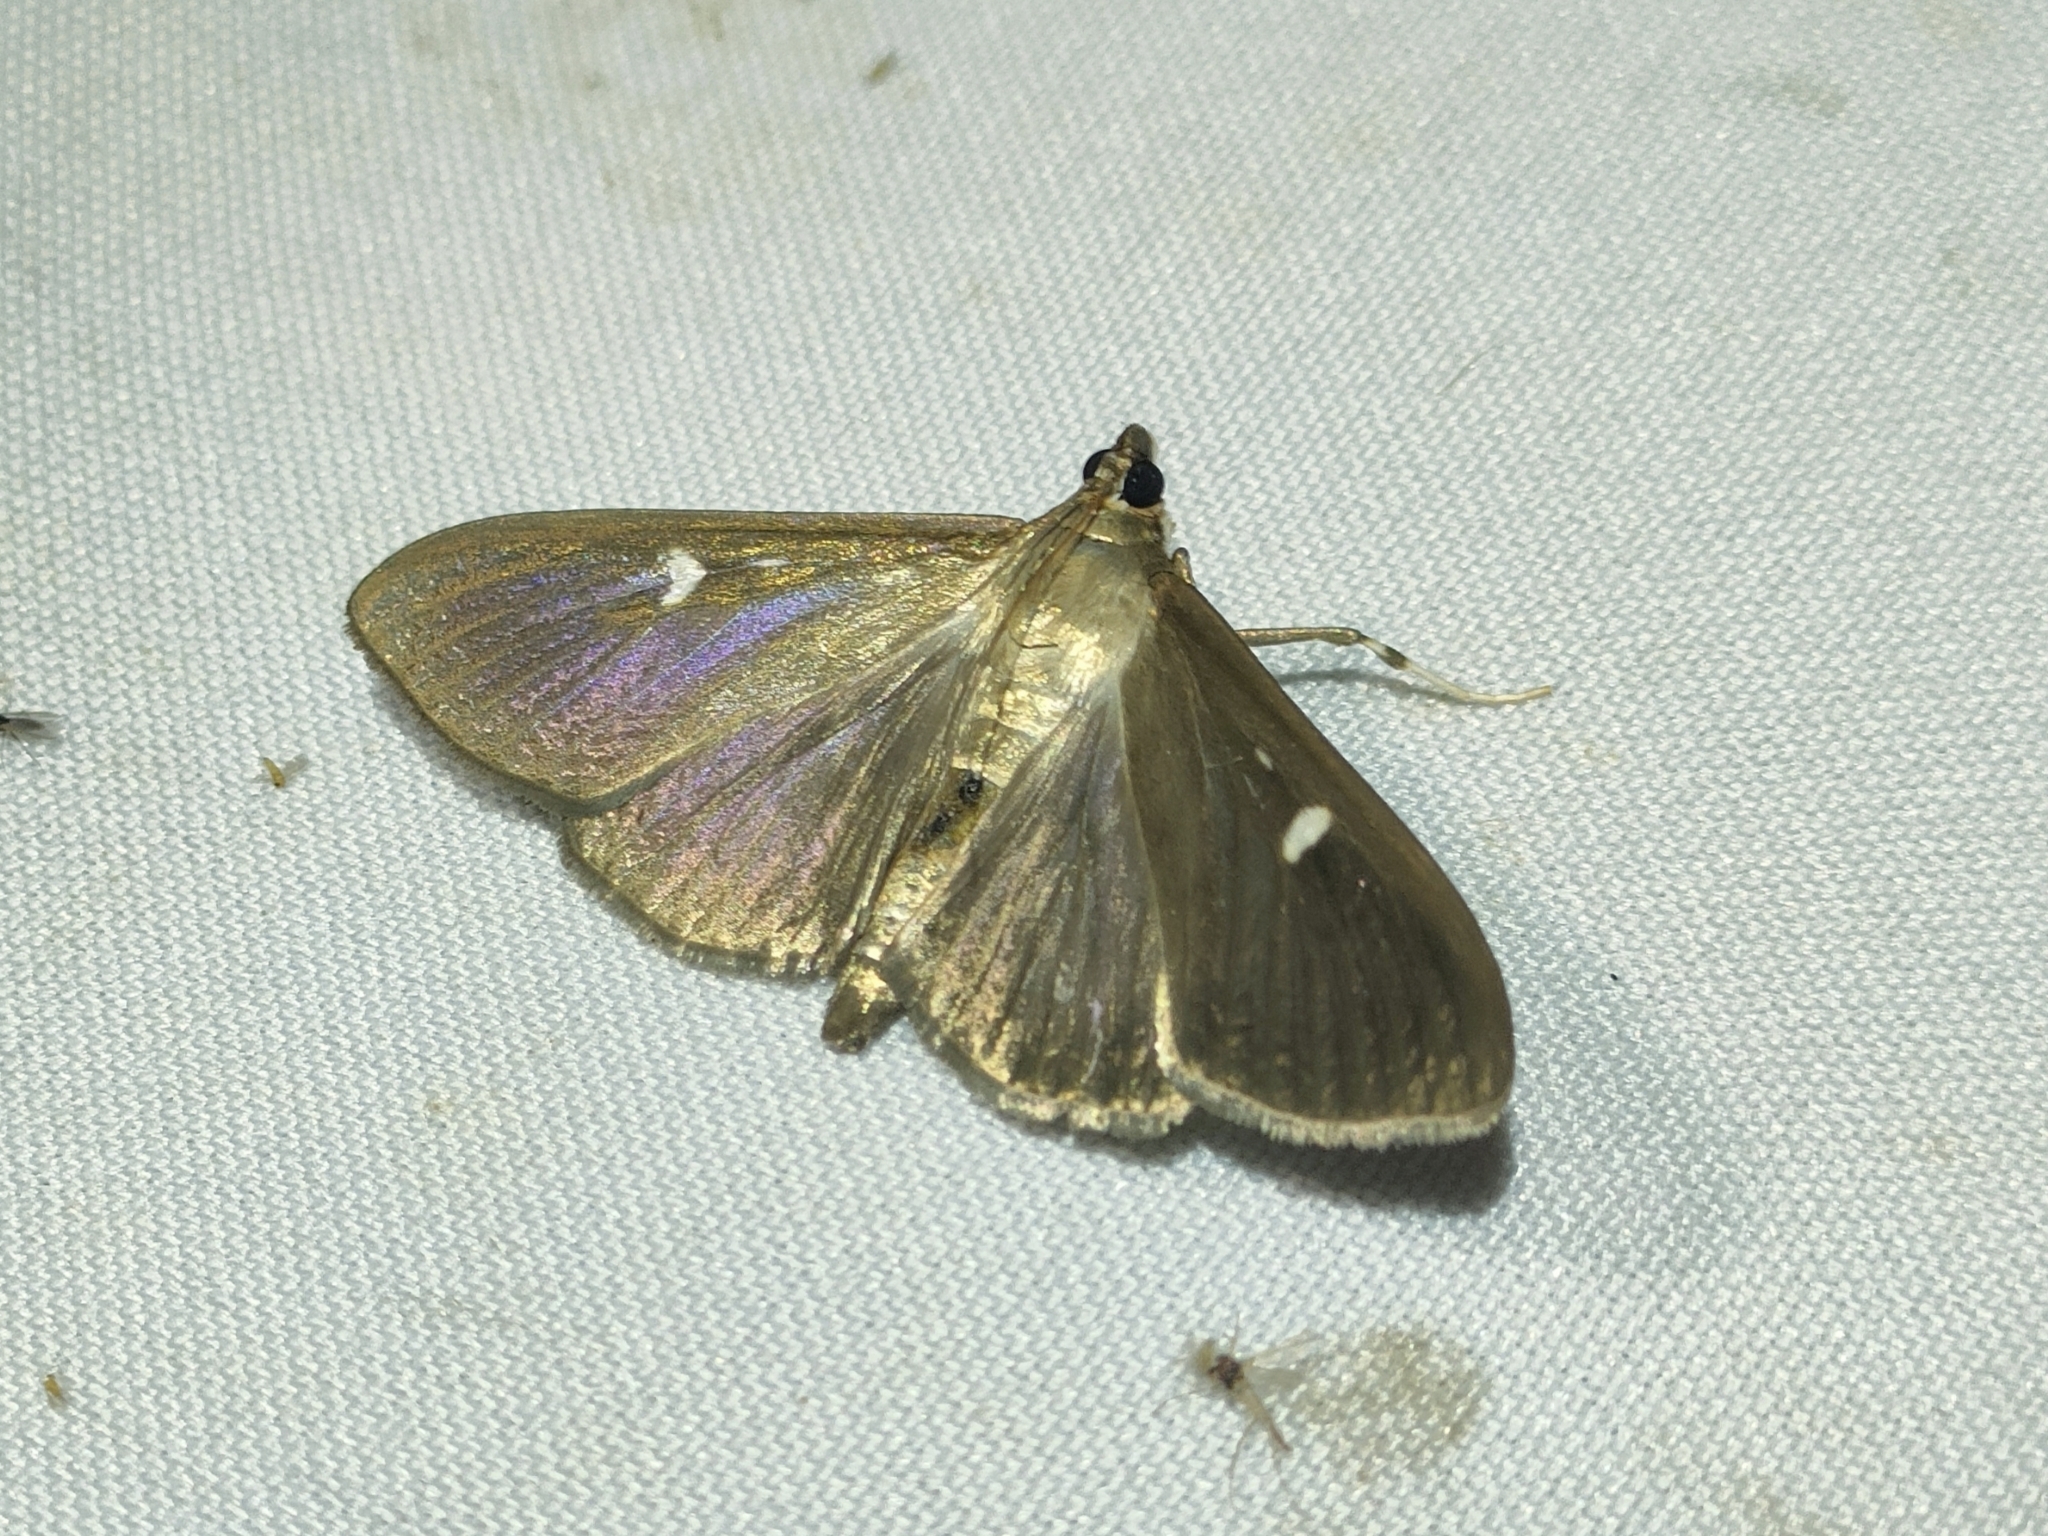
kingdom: Animalia
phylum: Arthropoda
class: Insecta
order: Lepidoptera
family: Crambidae
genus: Cydalima
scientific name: Cydalima perspectalis
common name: Box tree moth
